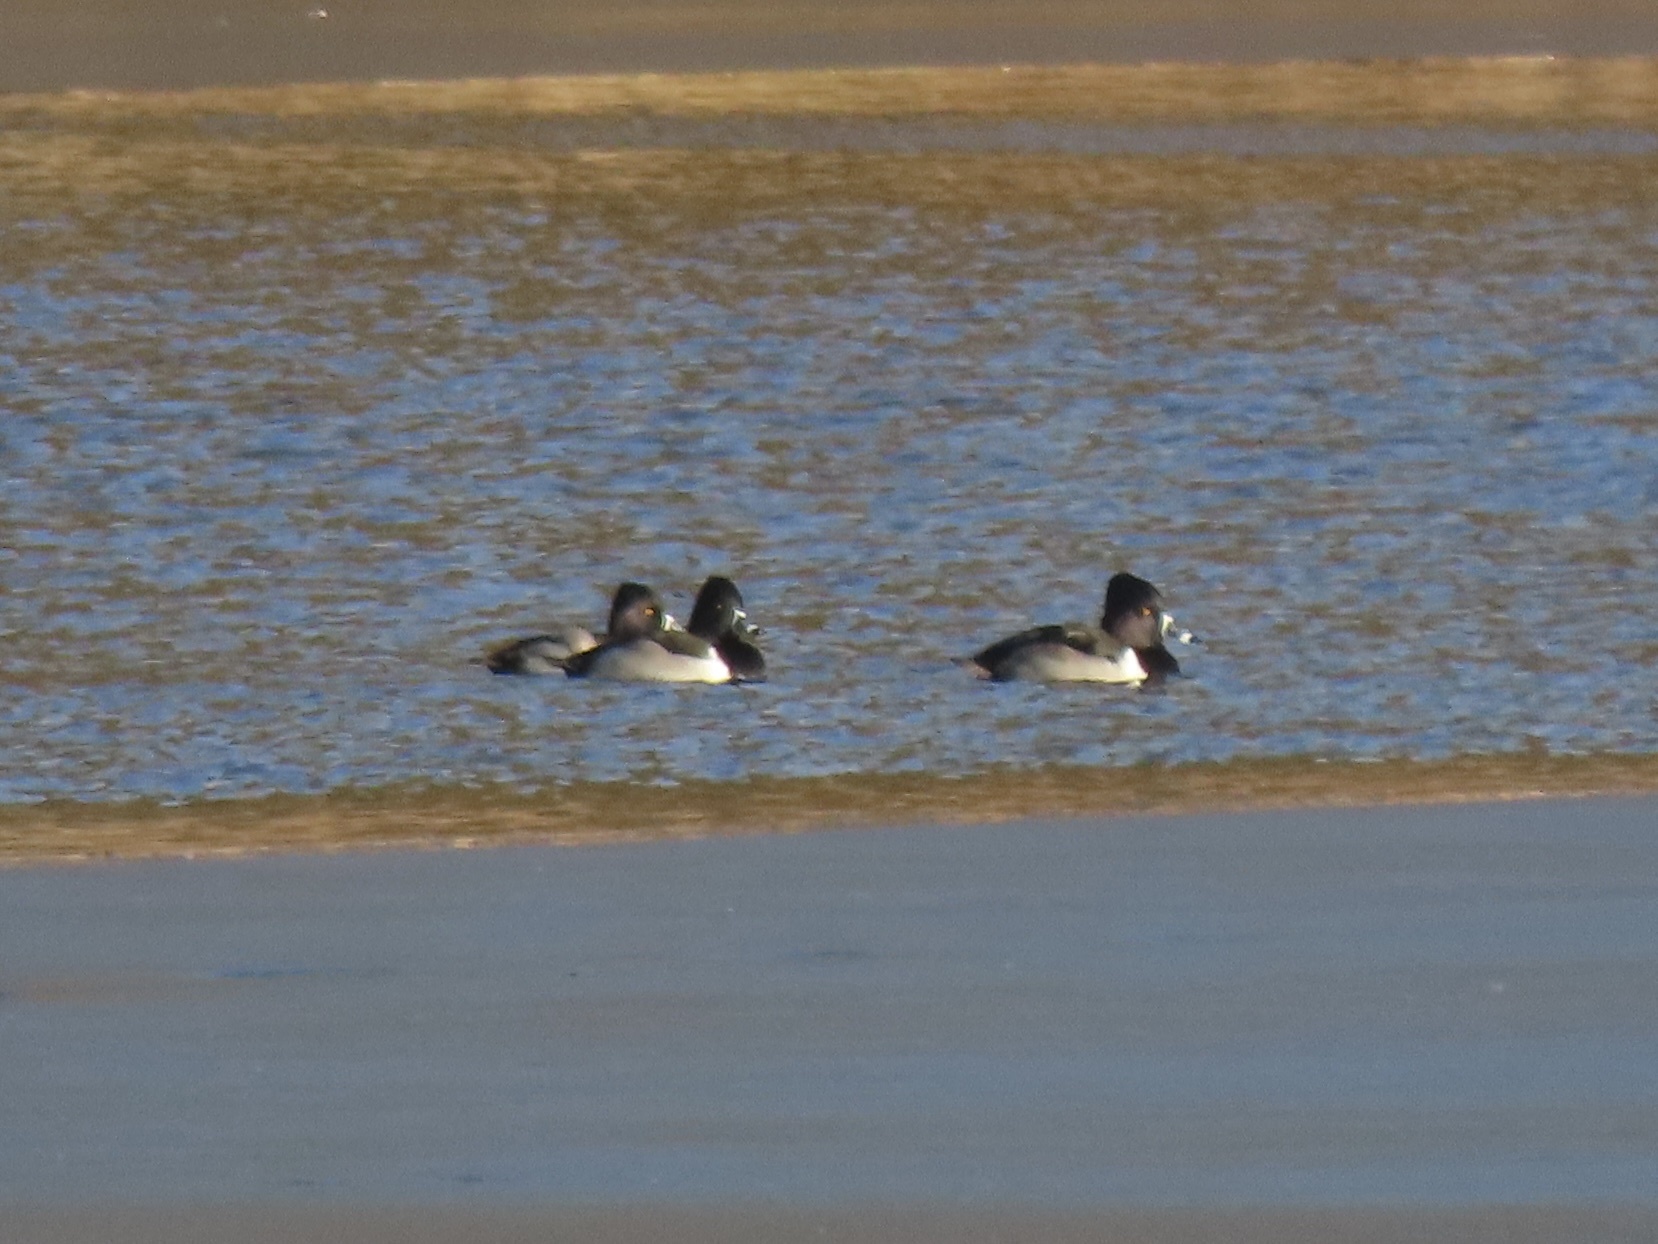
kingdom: Animalia
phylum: Chordata
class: Aves
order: Anseriformes
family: Anatidae
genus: Aythya
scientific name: Aythya collaris
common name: Ring-necked duck
